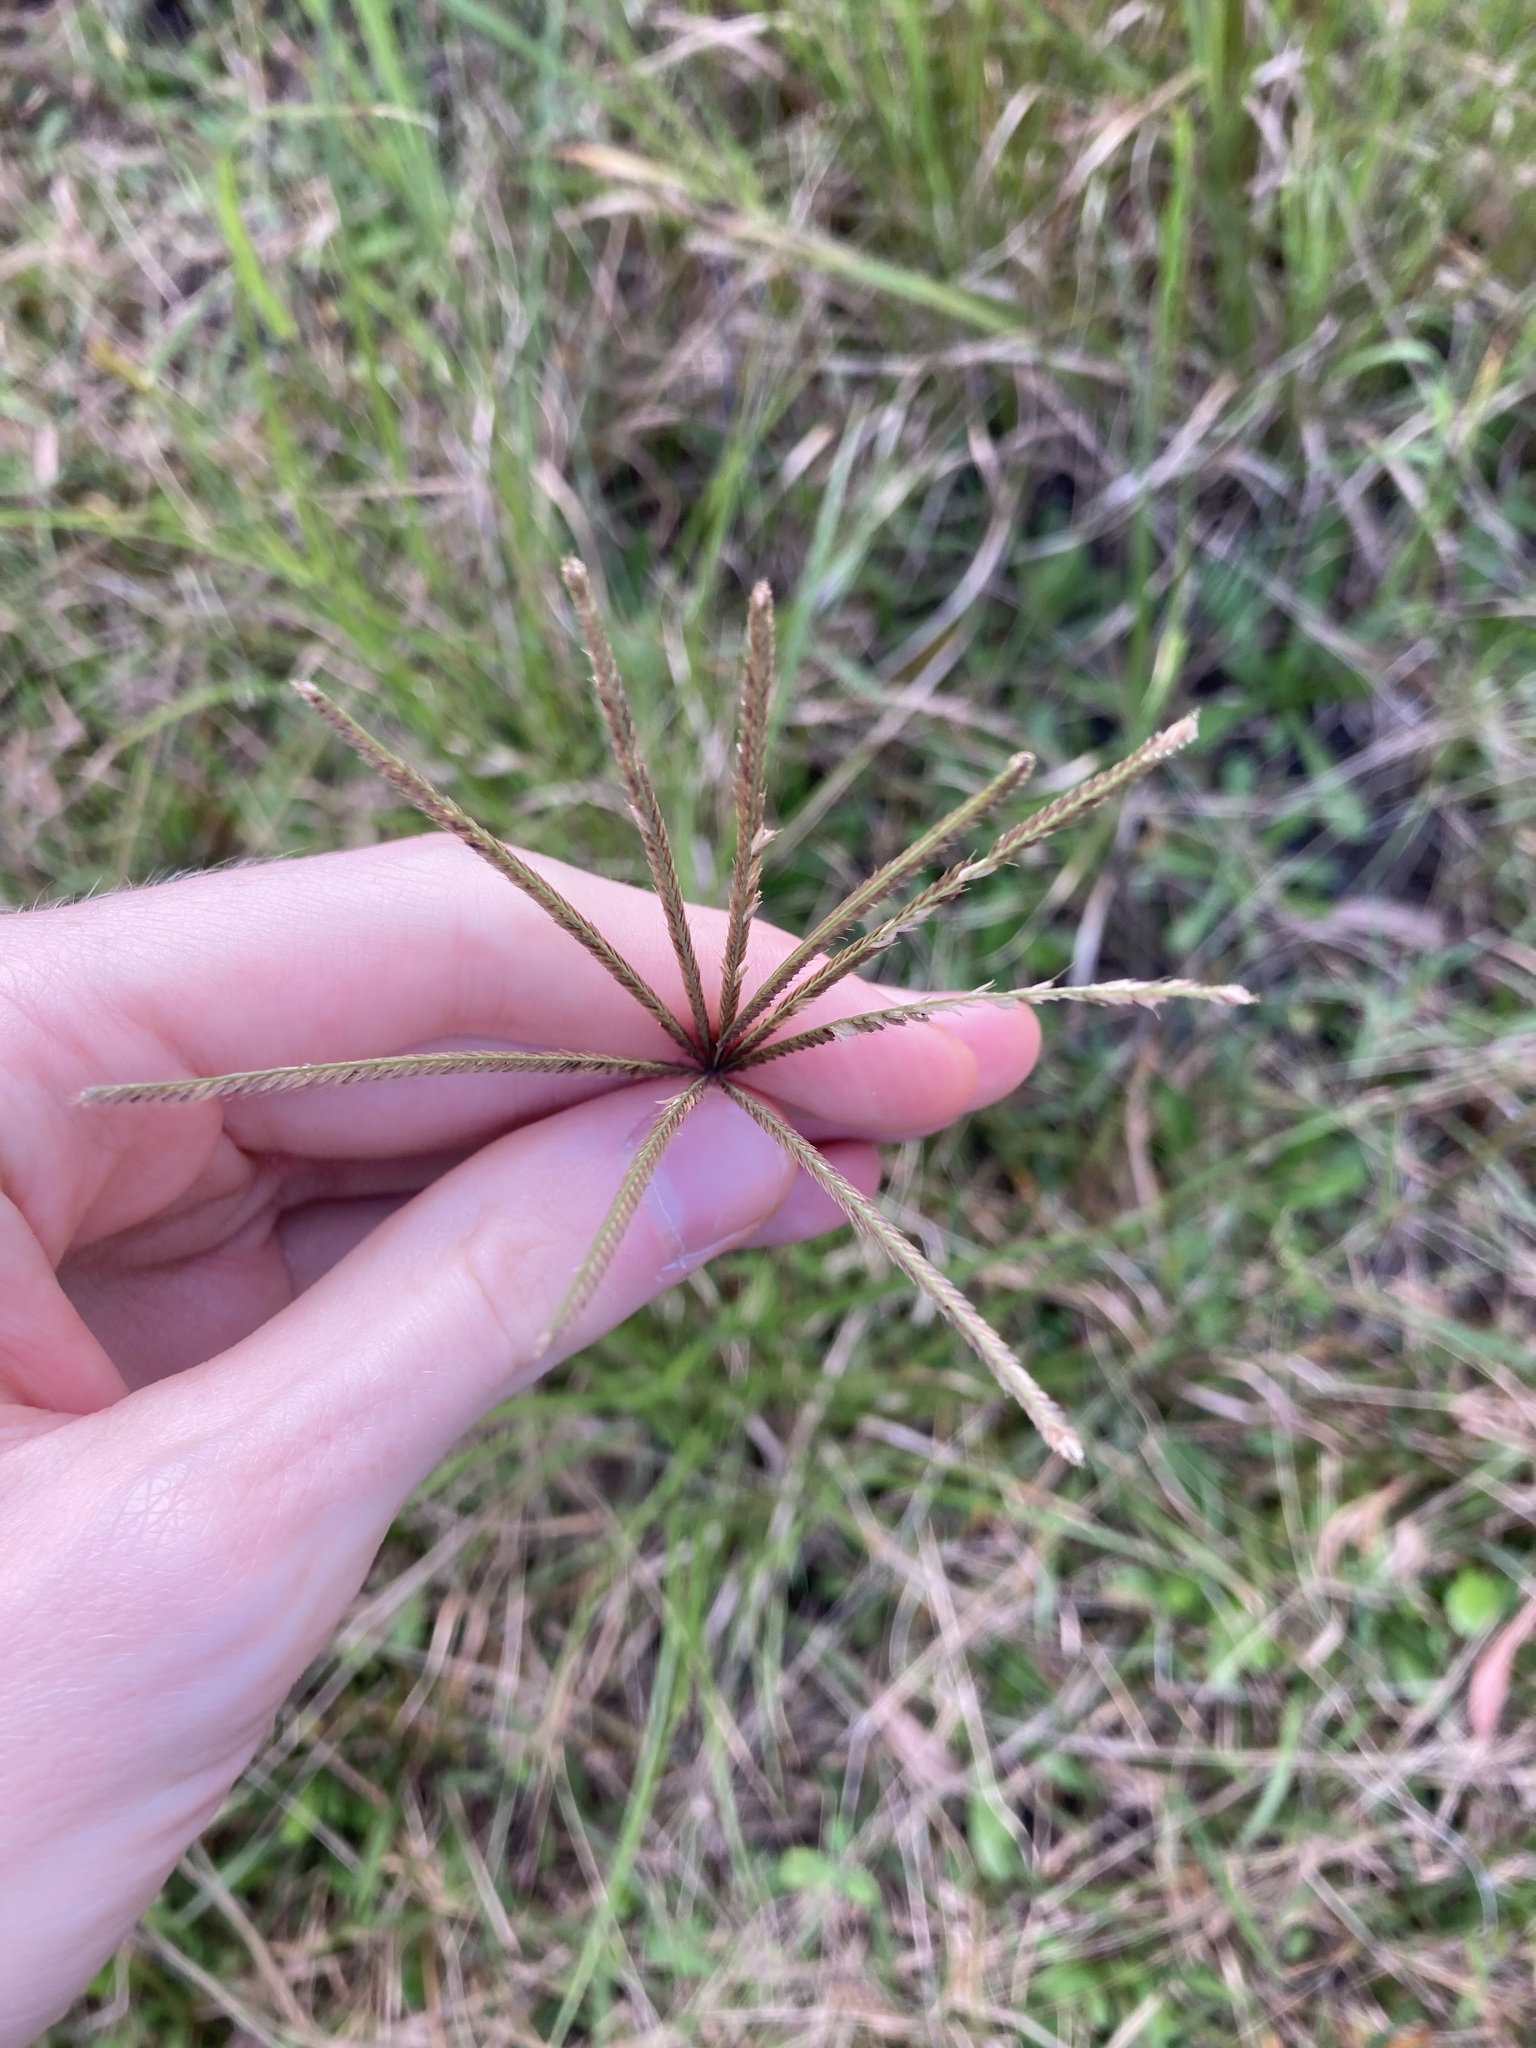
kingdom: Plantae
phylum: Tracheophyta
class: Liliopsida
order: Poales
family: Poaceae
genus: Chloris
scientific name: Chloris gayana
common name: Rhodes grass
